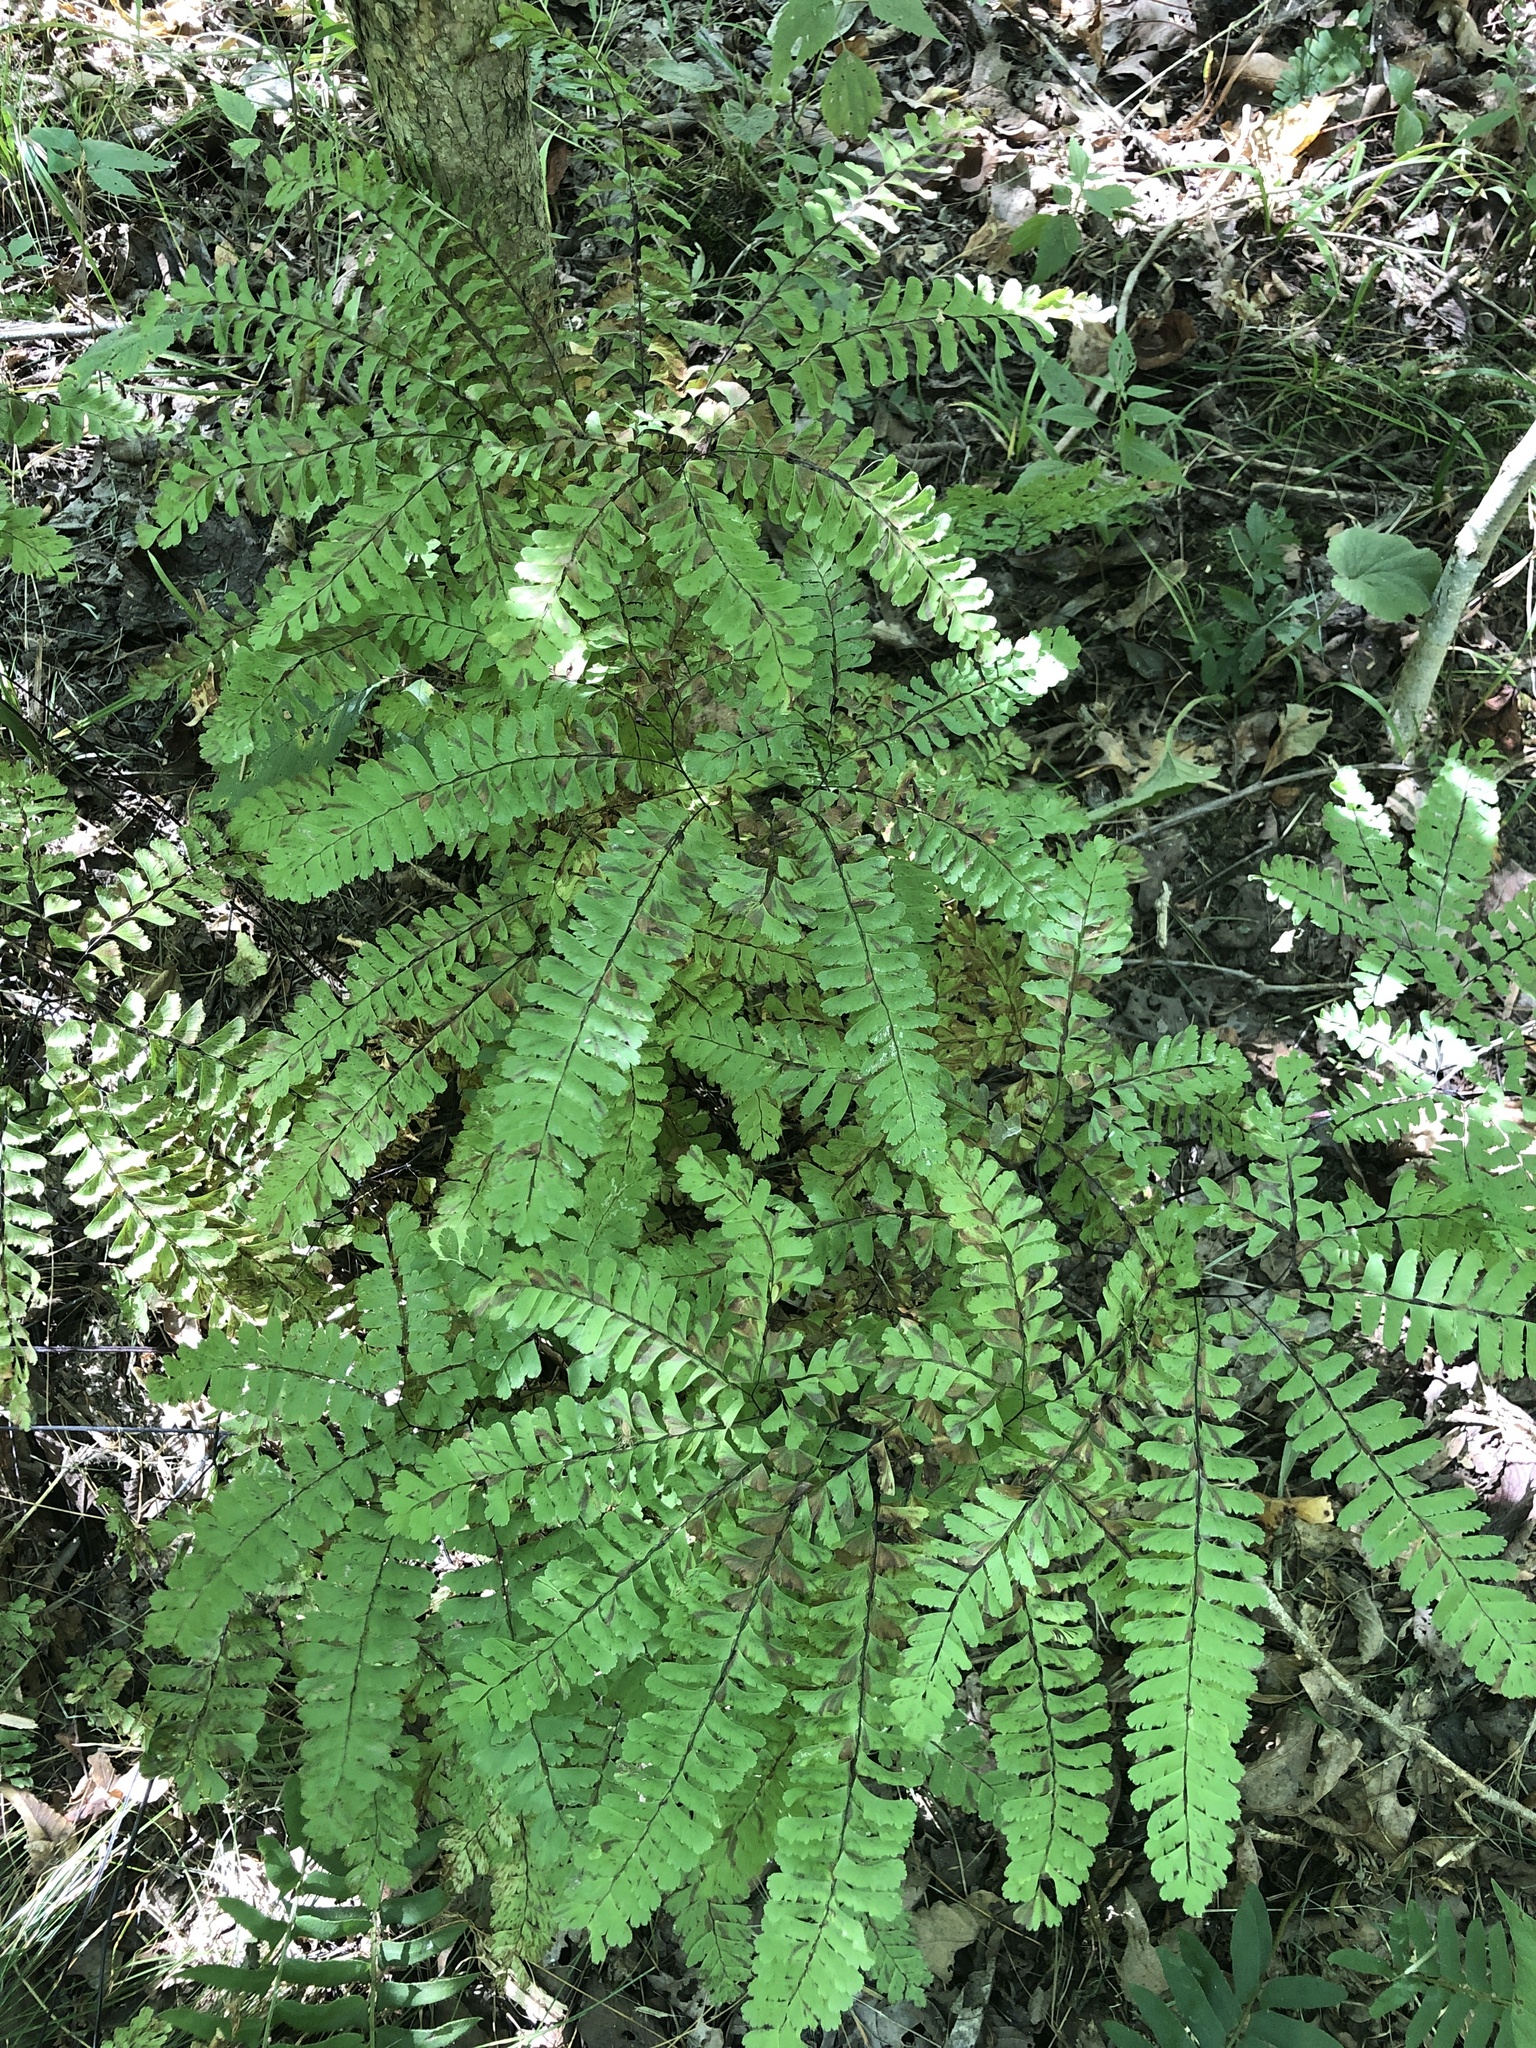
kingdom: Plantae
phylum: Tracheophyta
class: Polypodiopsida
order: Polypodiales
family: Pteridaceae
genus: Adiantum
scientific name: Adiantum pedatum
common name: Five-finger fern
